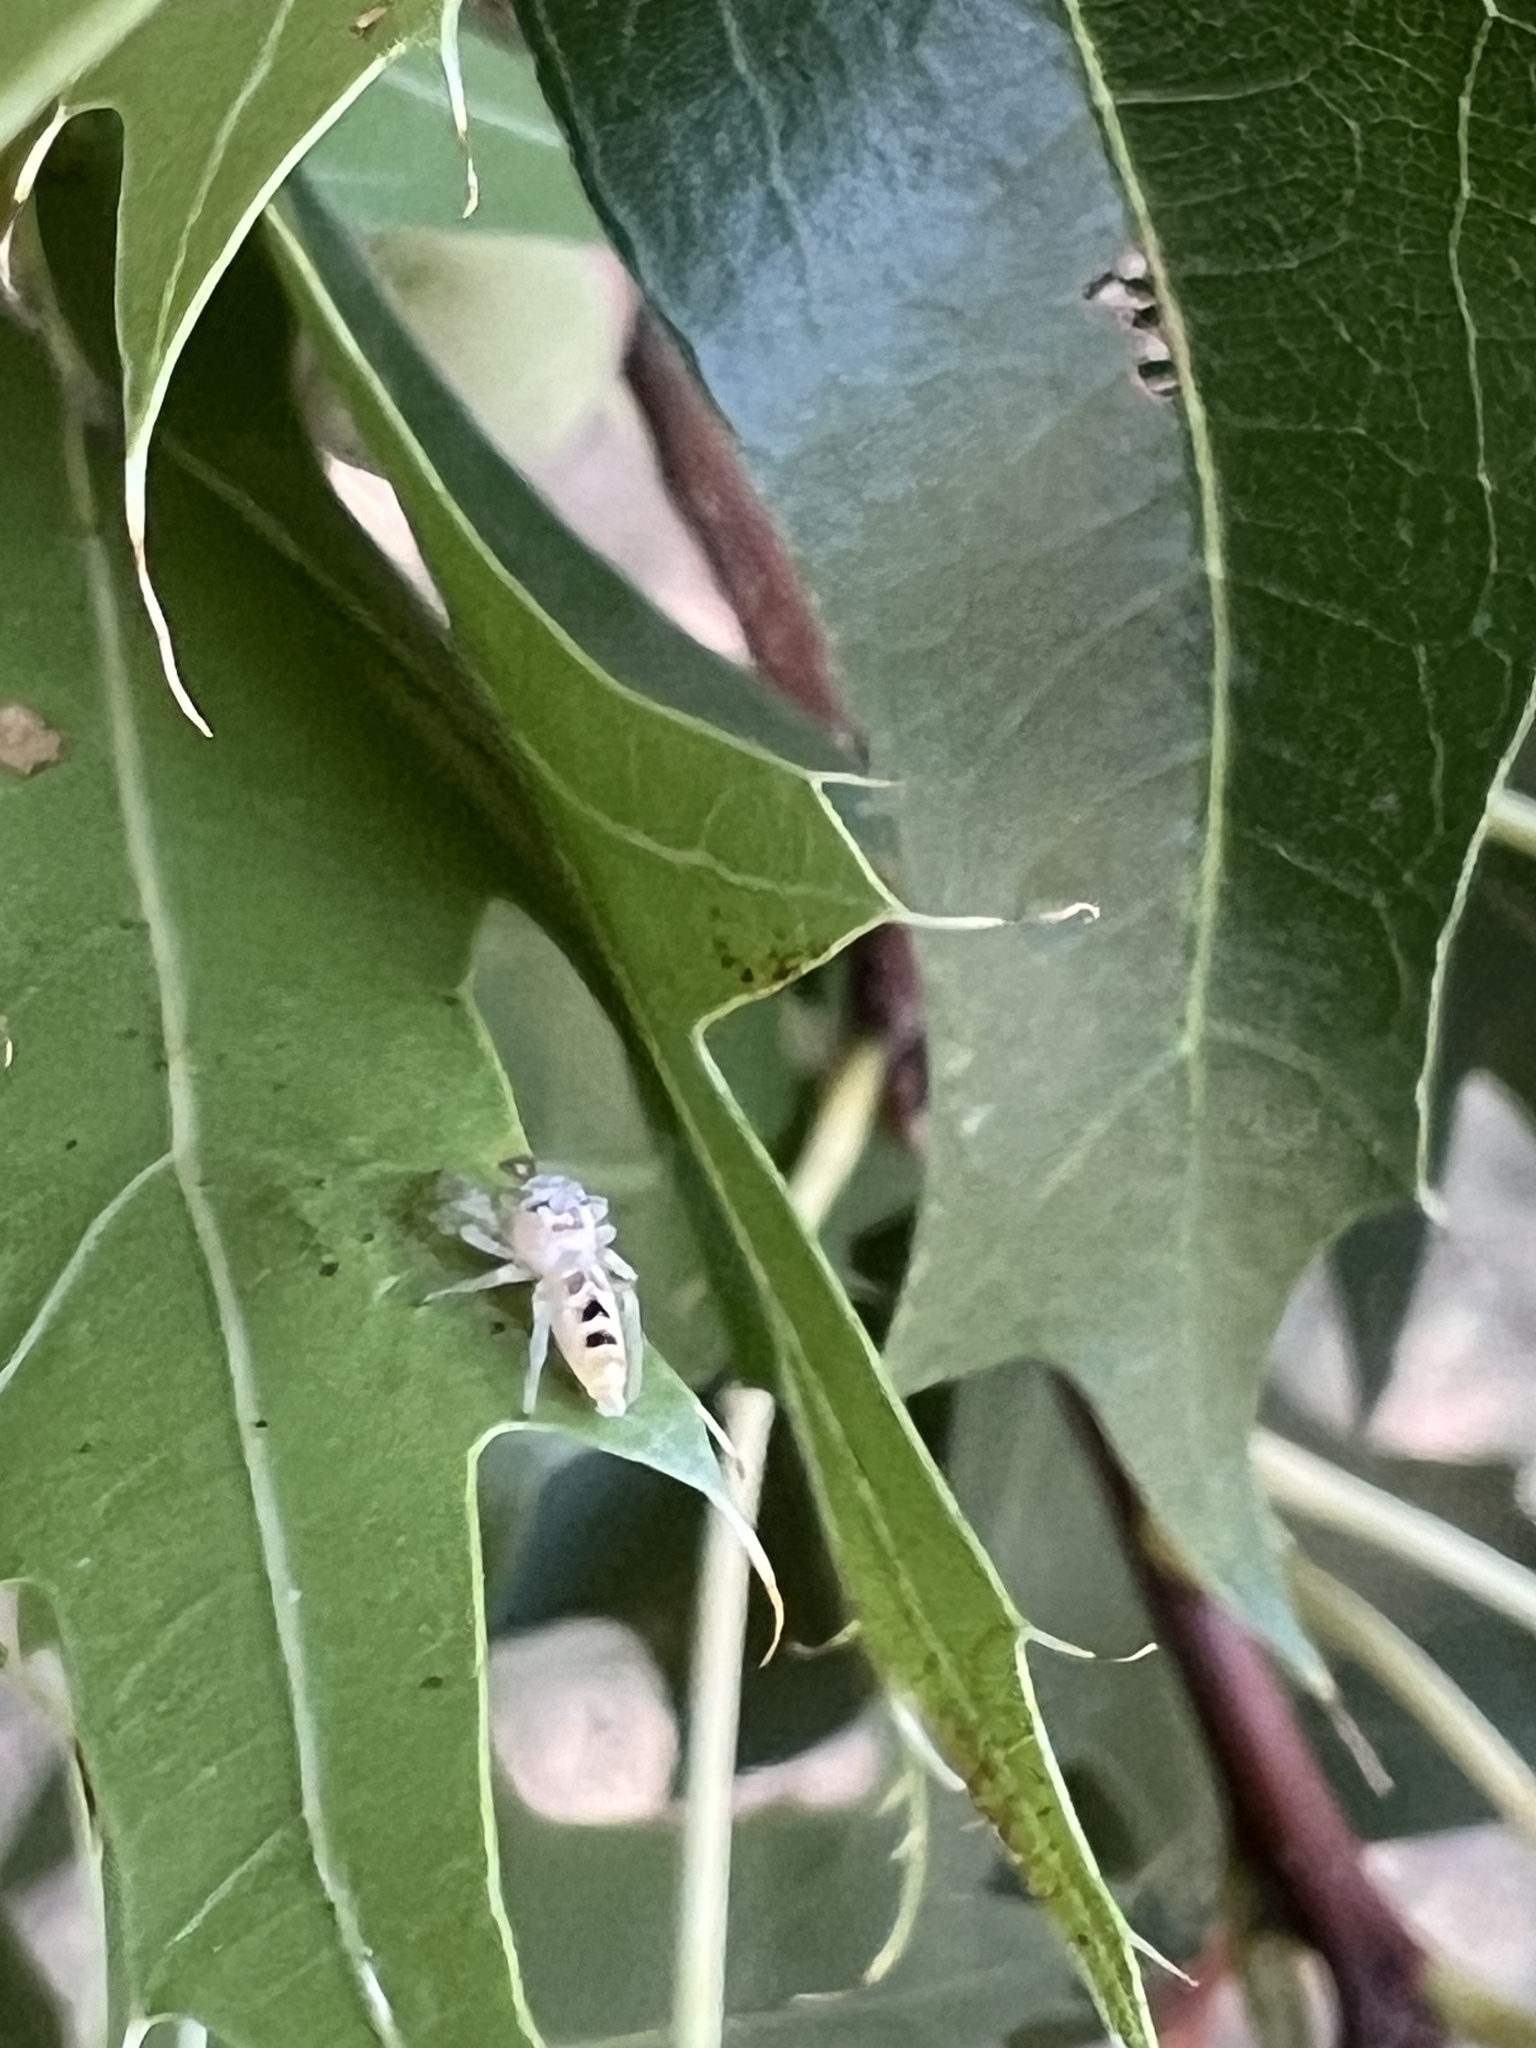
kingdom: Animalia
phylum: Arthropoda
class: Arachnida
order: Araneae
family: Salticidae
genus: Hentzia
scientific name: Hentzia mitrata
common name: White-jawed jumping spider
